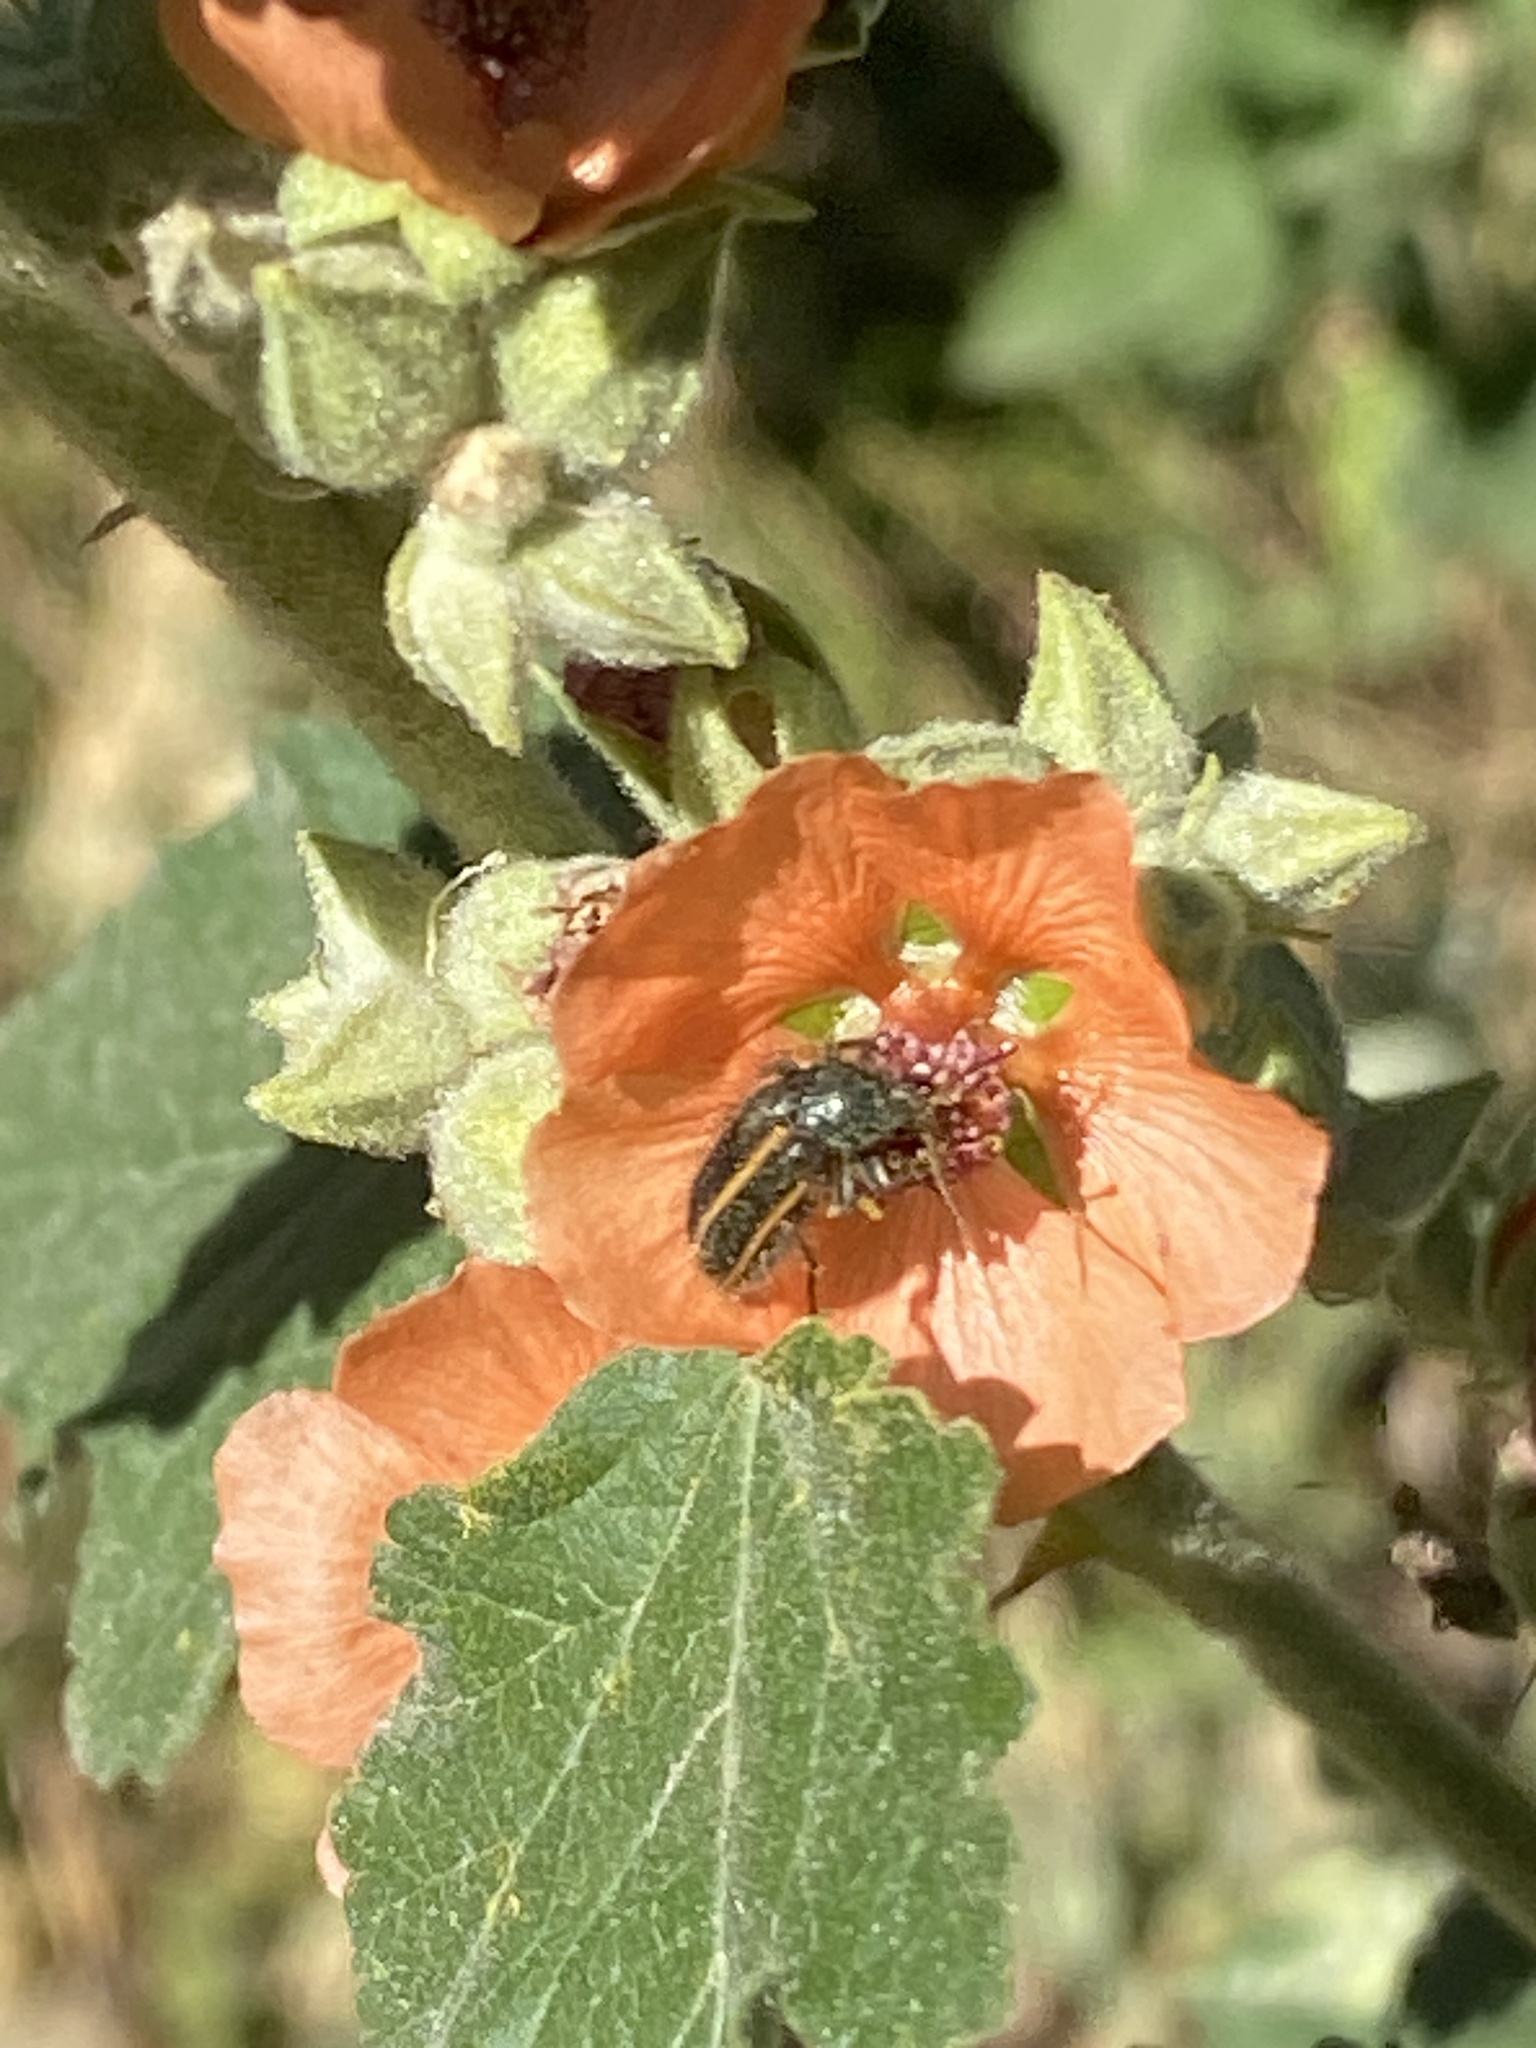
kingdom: Animalia
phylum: Arthropoda
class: Insecta
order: Coleoptera
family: Melyridae
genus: Astylus
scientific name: Astylus
